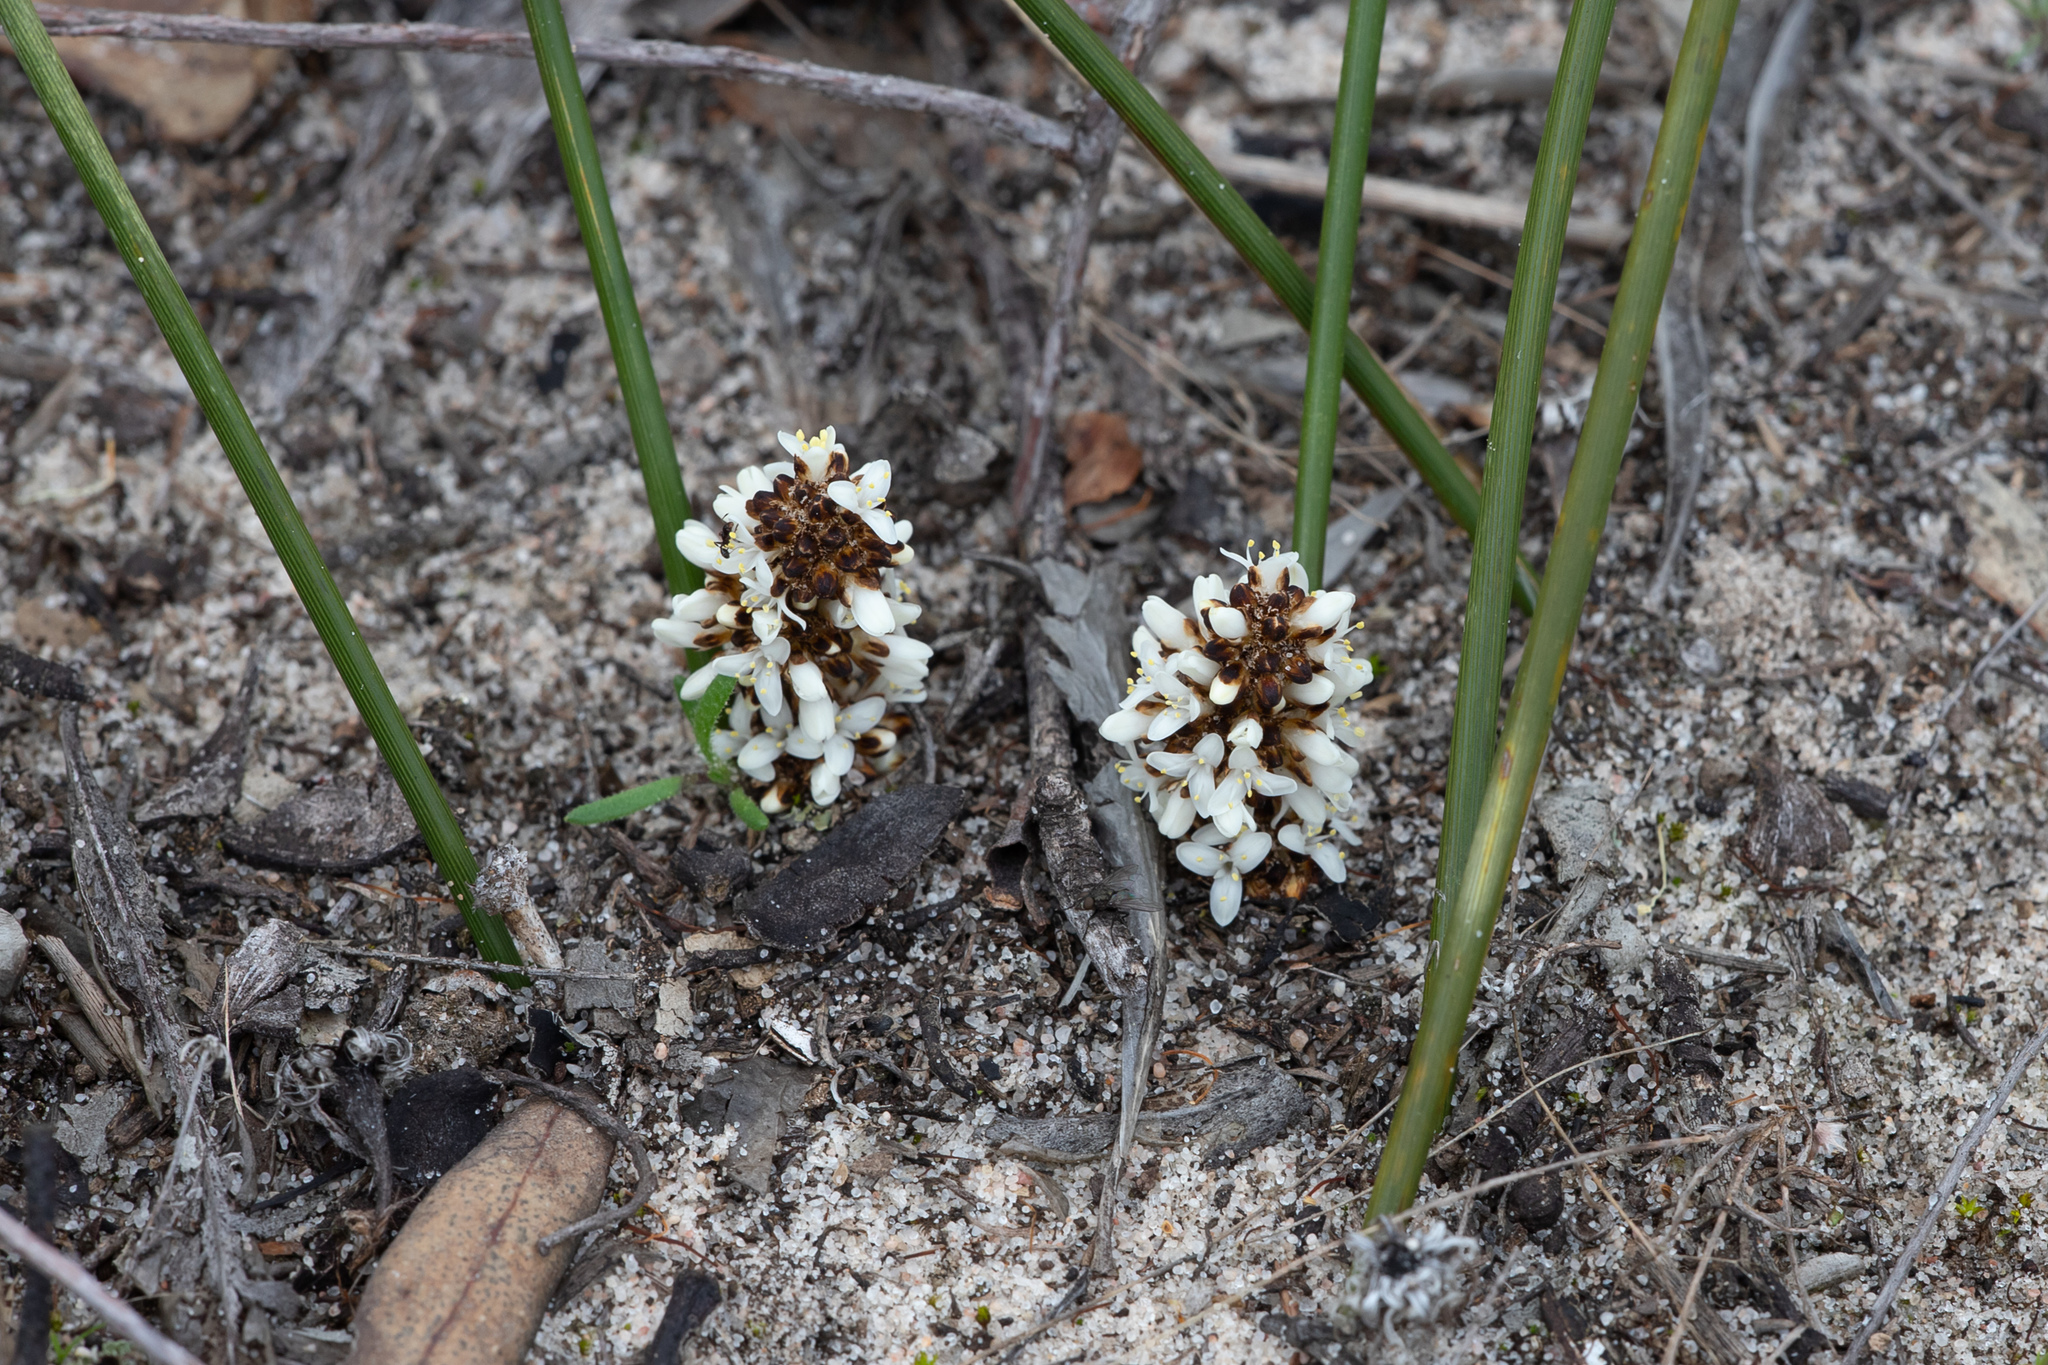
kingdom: Plantae
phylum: Tracheophyta
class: Liliopsida
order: Asparagales
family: Asparagaceae
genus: Lomandra
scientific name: Lomandra juncea
